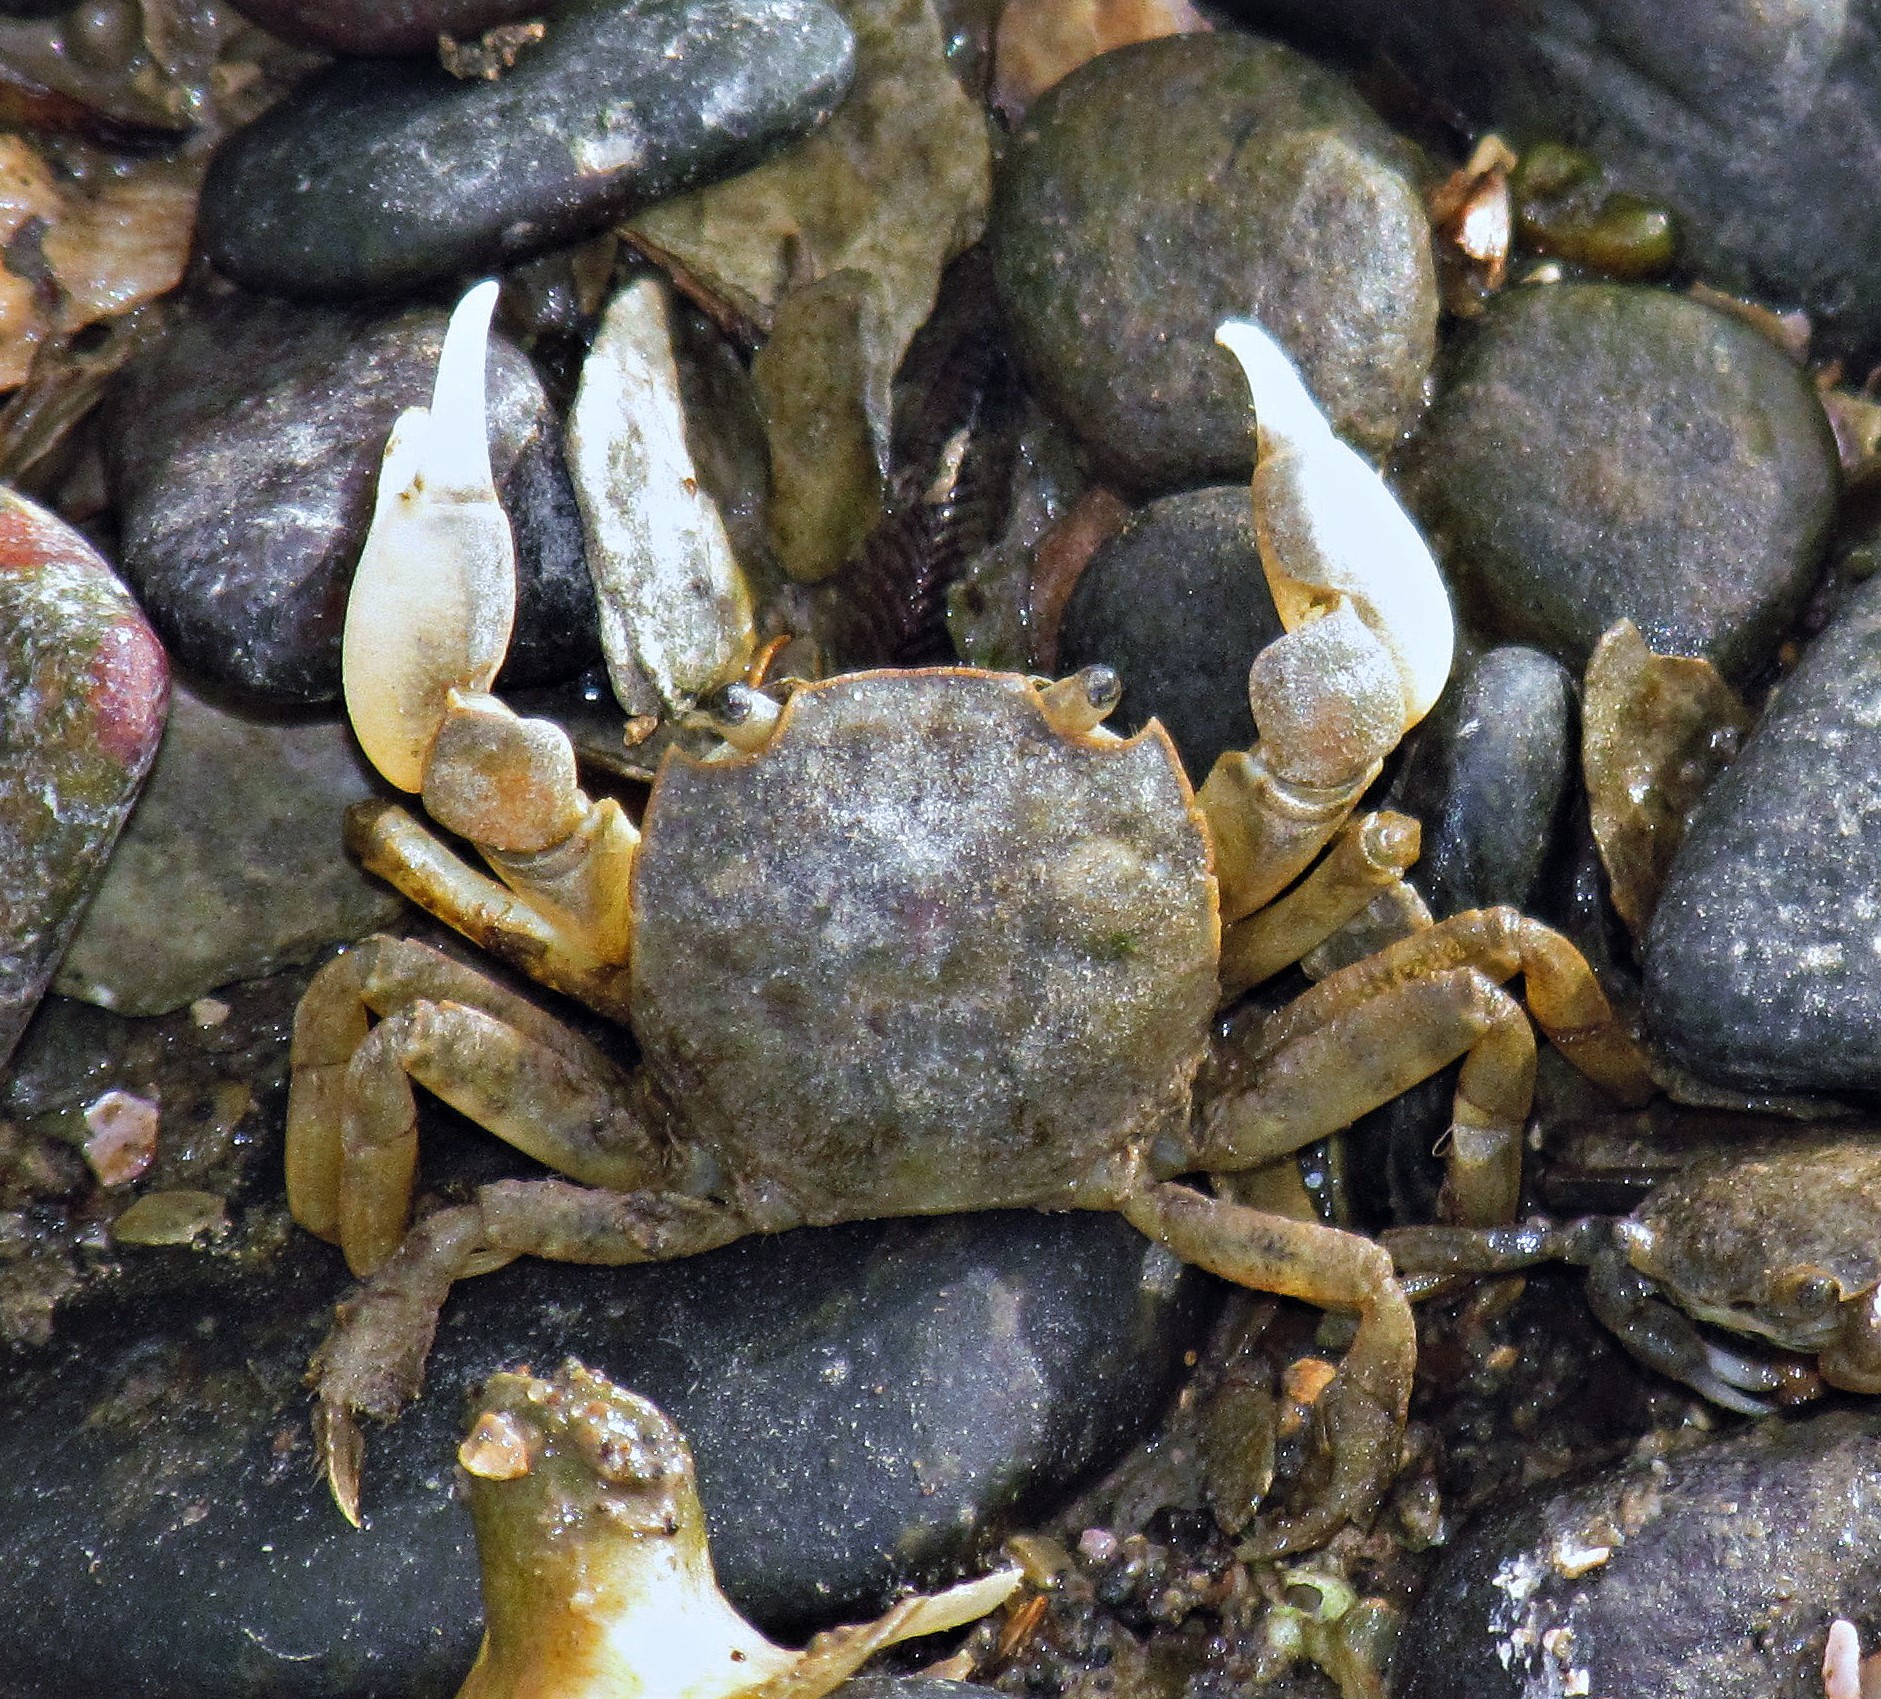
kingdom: Animalia
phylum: Arthropoda
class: Malacostraca
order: Decapoda
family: Varunidae
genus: Neohelice
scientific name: Neohelice granulata
